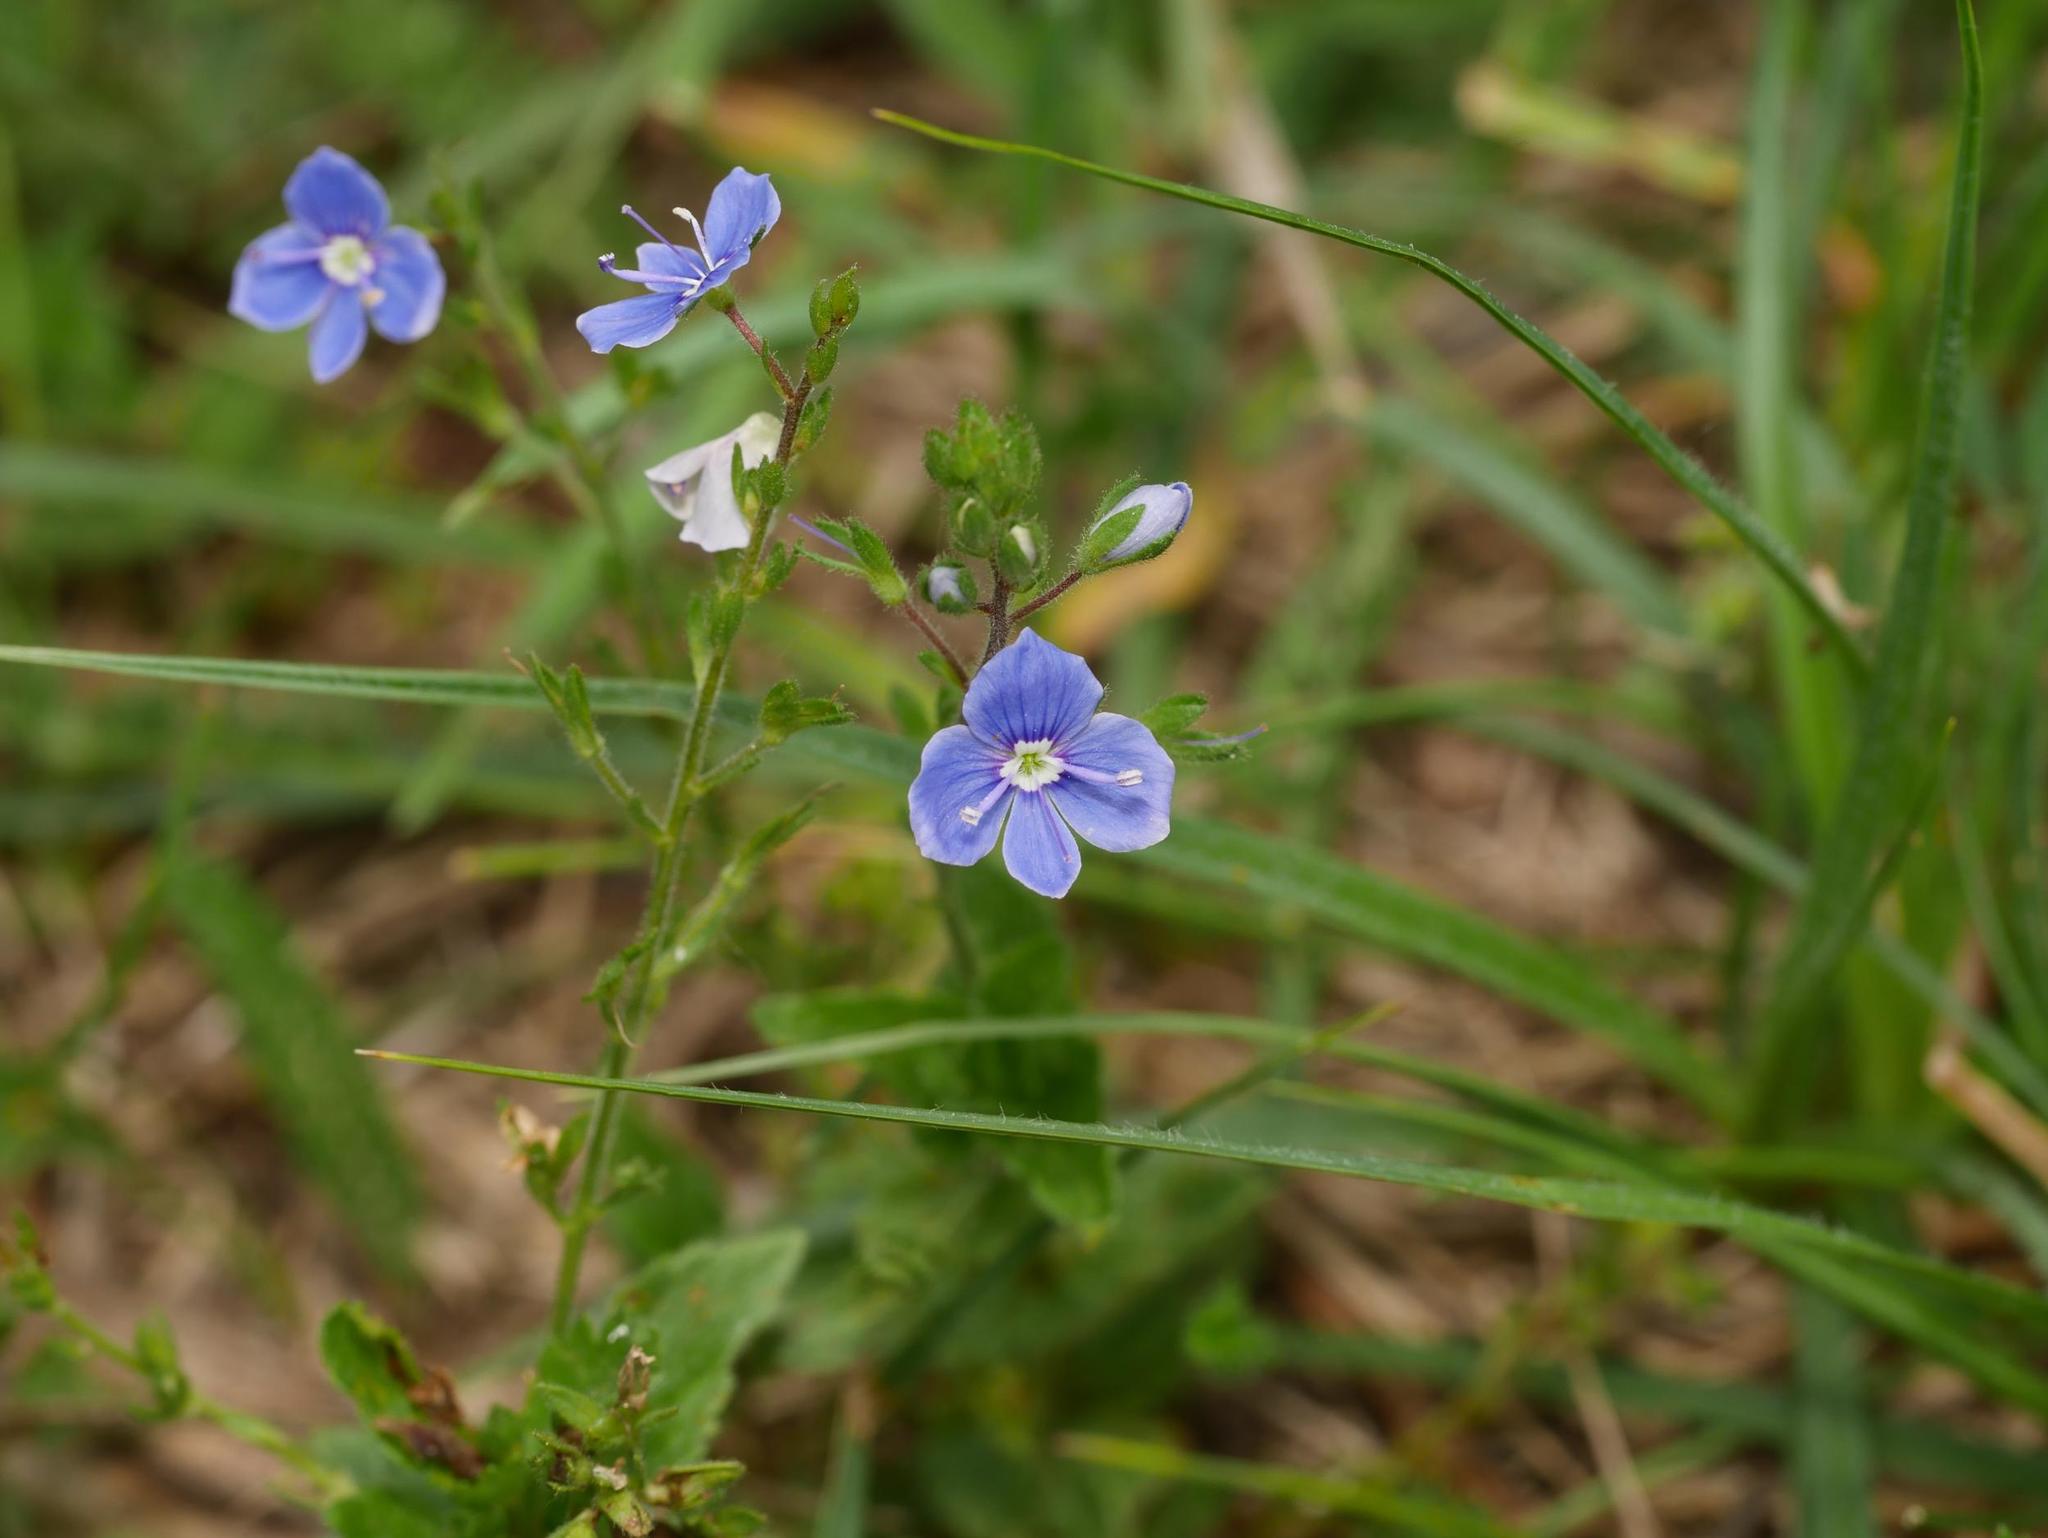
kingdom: Plantae
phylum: Tracheophyta
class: Magnoliopsida
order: Lamiales
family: Plantaginaceae
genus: Veronica
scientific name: Veronica chamaedrys
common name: Germander speedwell
